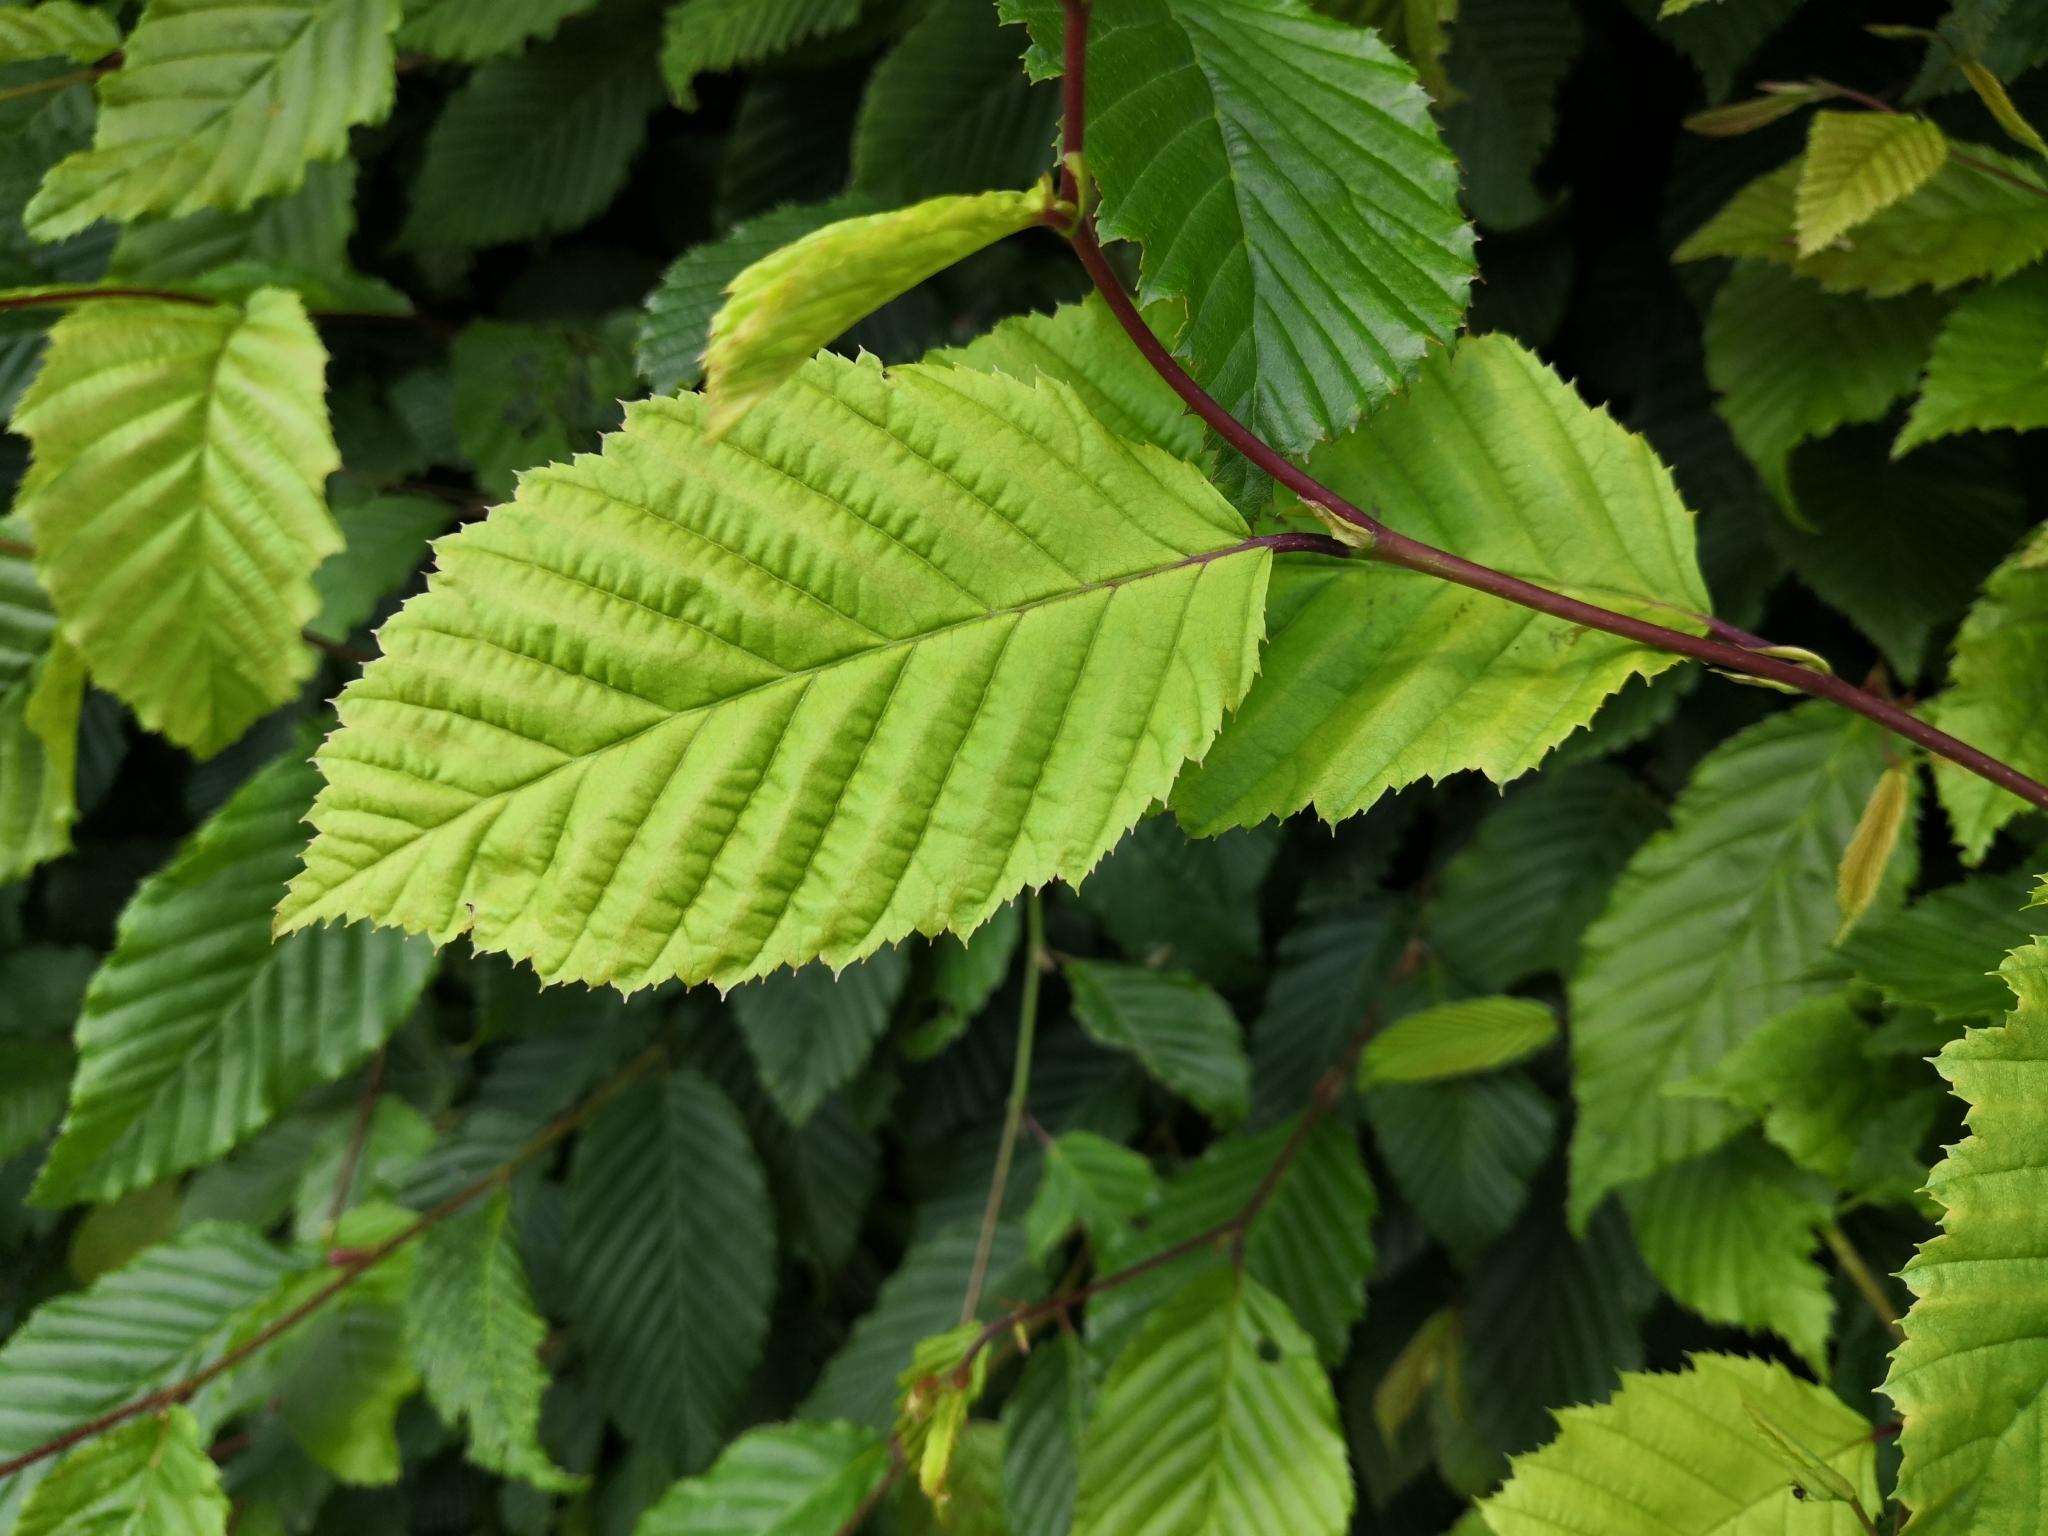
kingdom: Plantae
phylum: Tracheophyta
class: Magnoliopsida
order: Fagales
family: Betulaceae
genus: Carpinus
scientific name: Carpinus betulus
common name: Hornbeam
